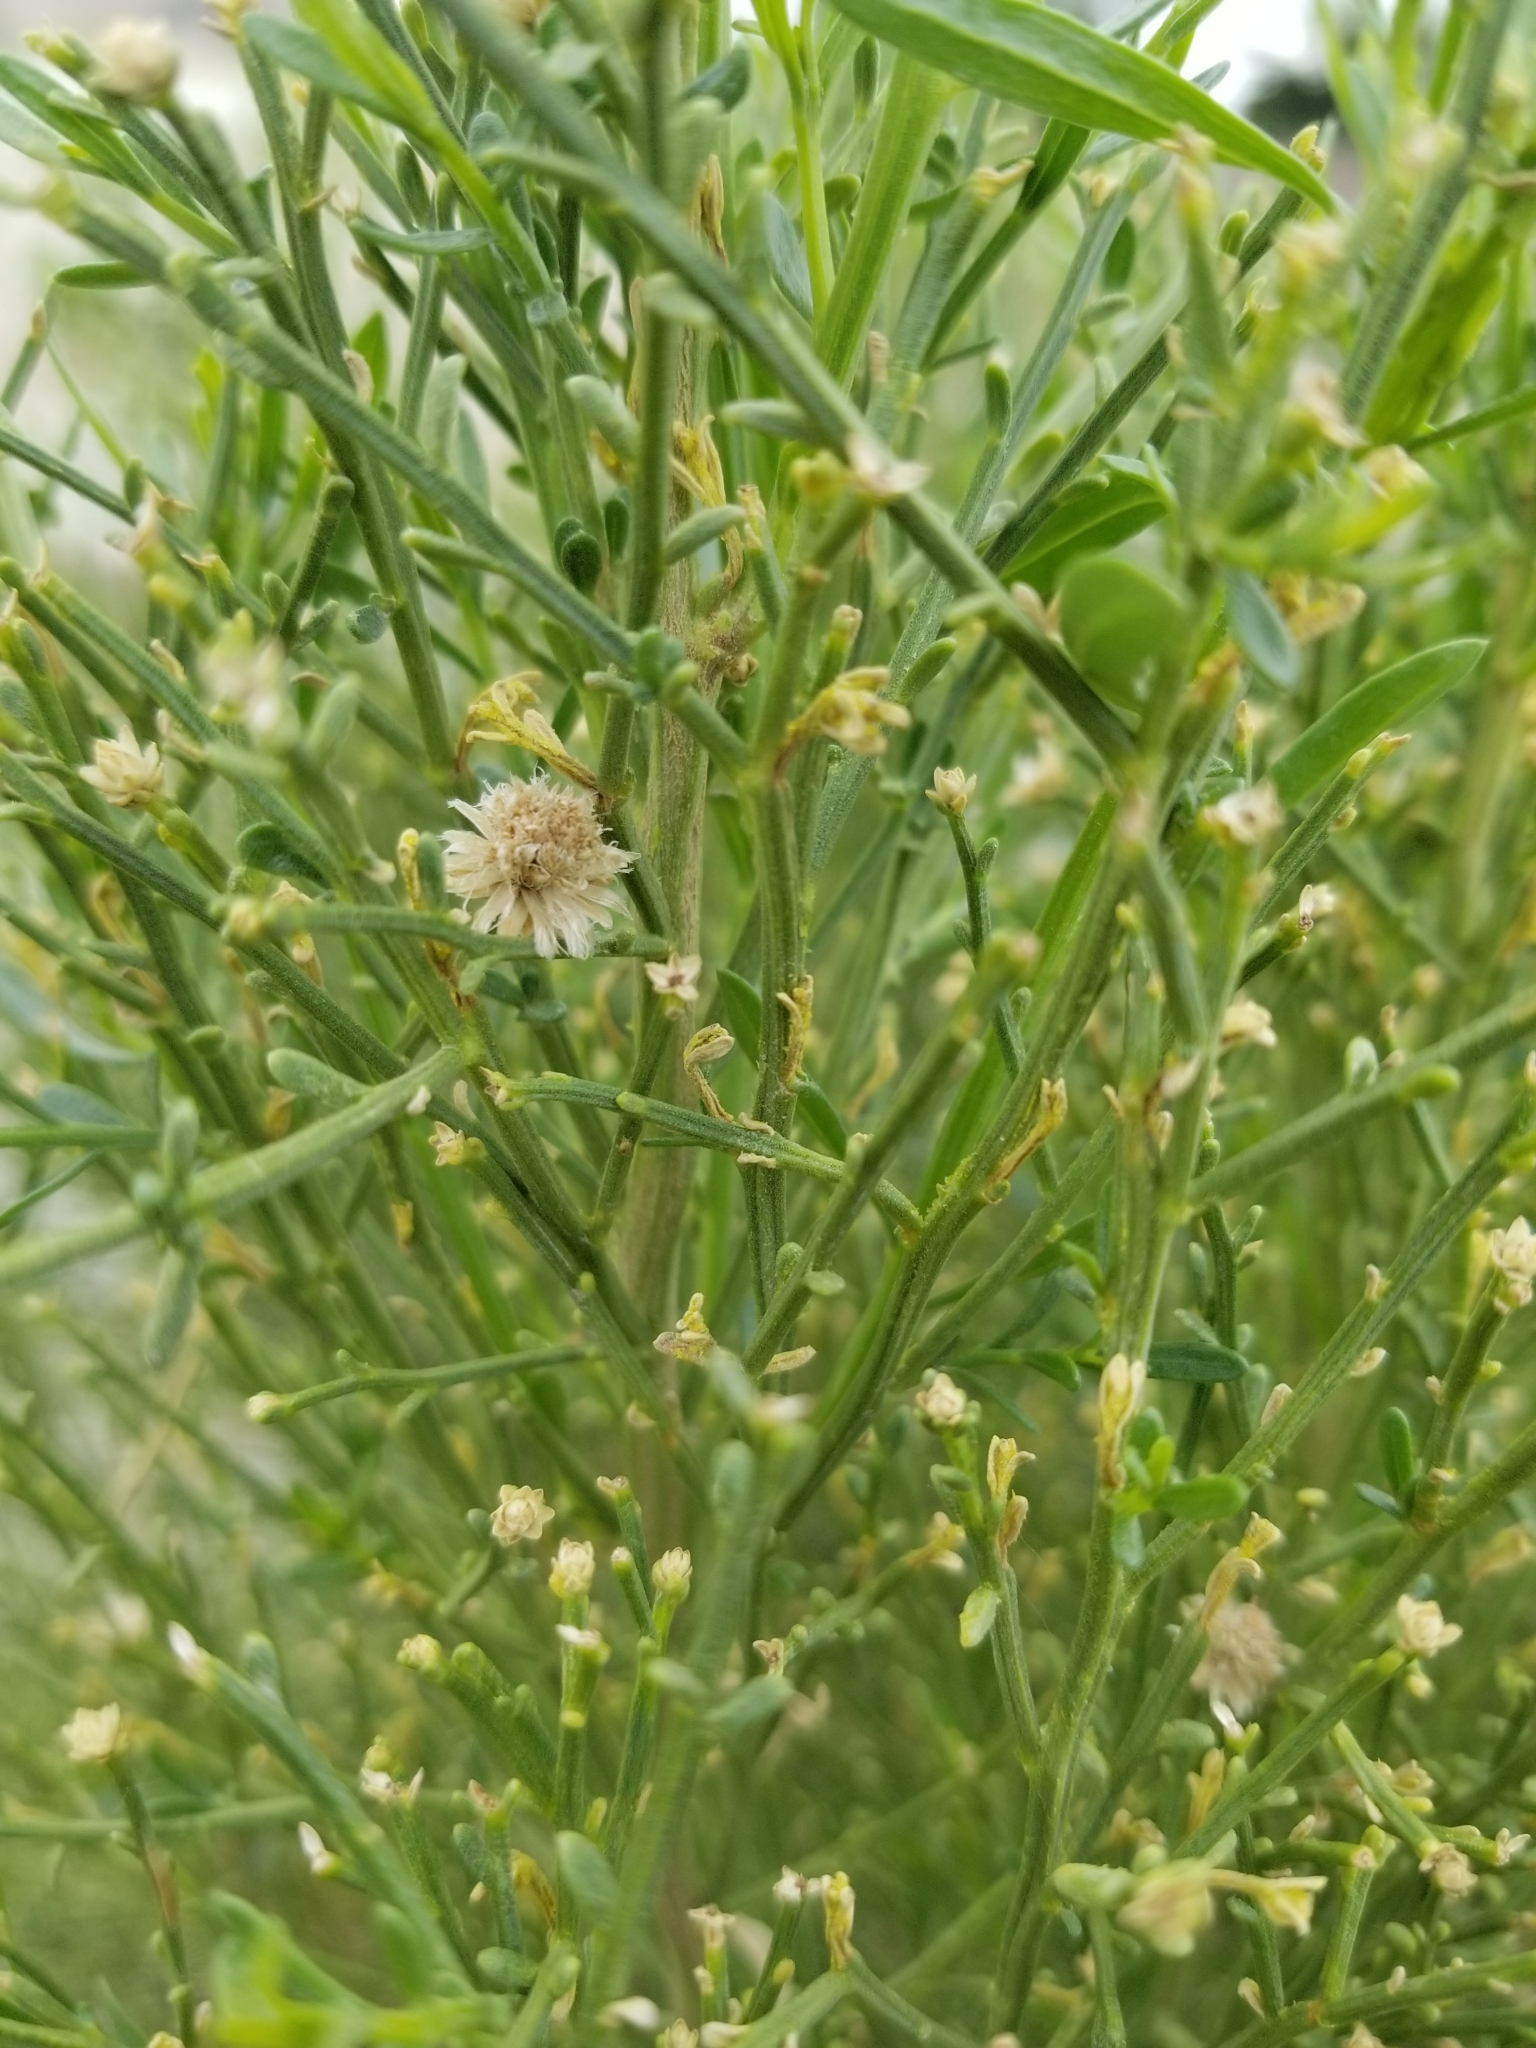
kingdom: Plantae
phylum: Tracheophyta
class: Magnoliopsida
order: Asterales
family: Asteraceae
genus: Baccharis
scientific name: Baccharis sarothroides
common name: Desert-broom
